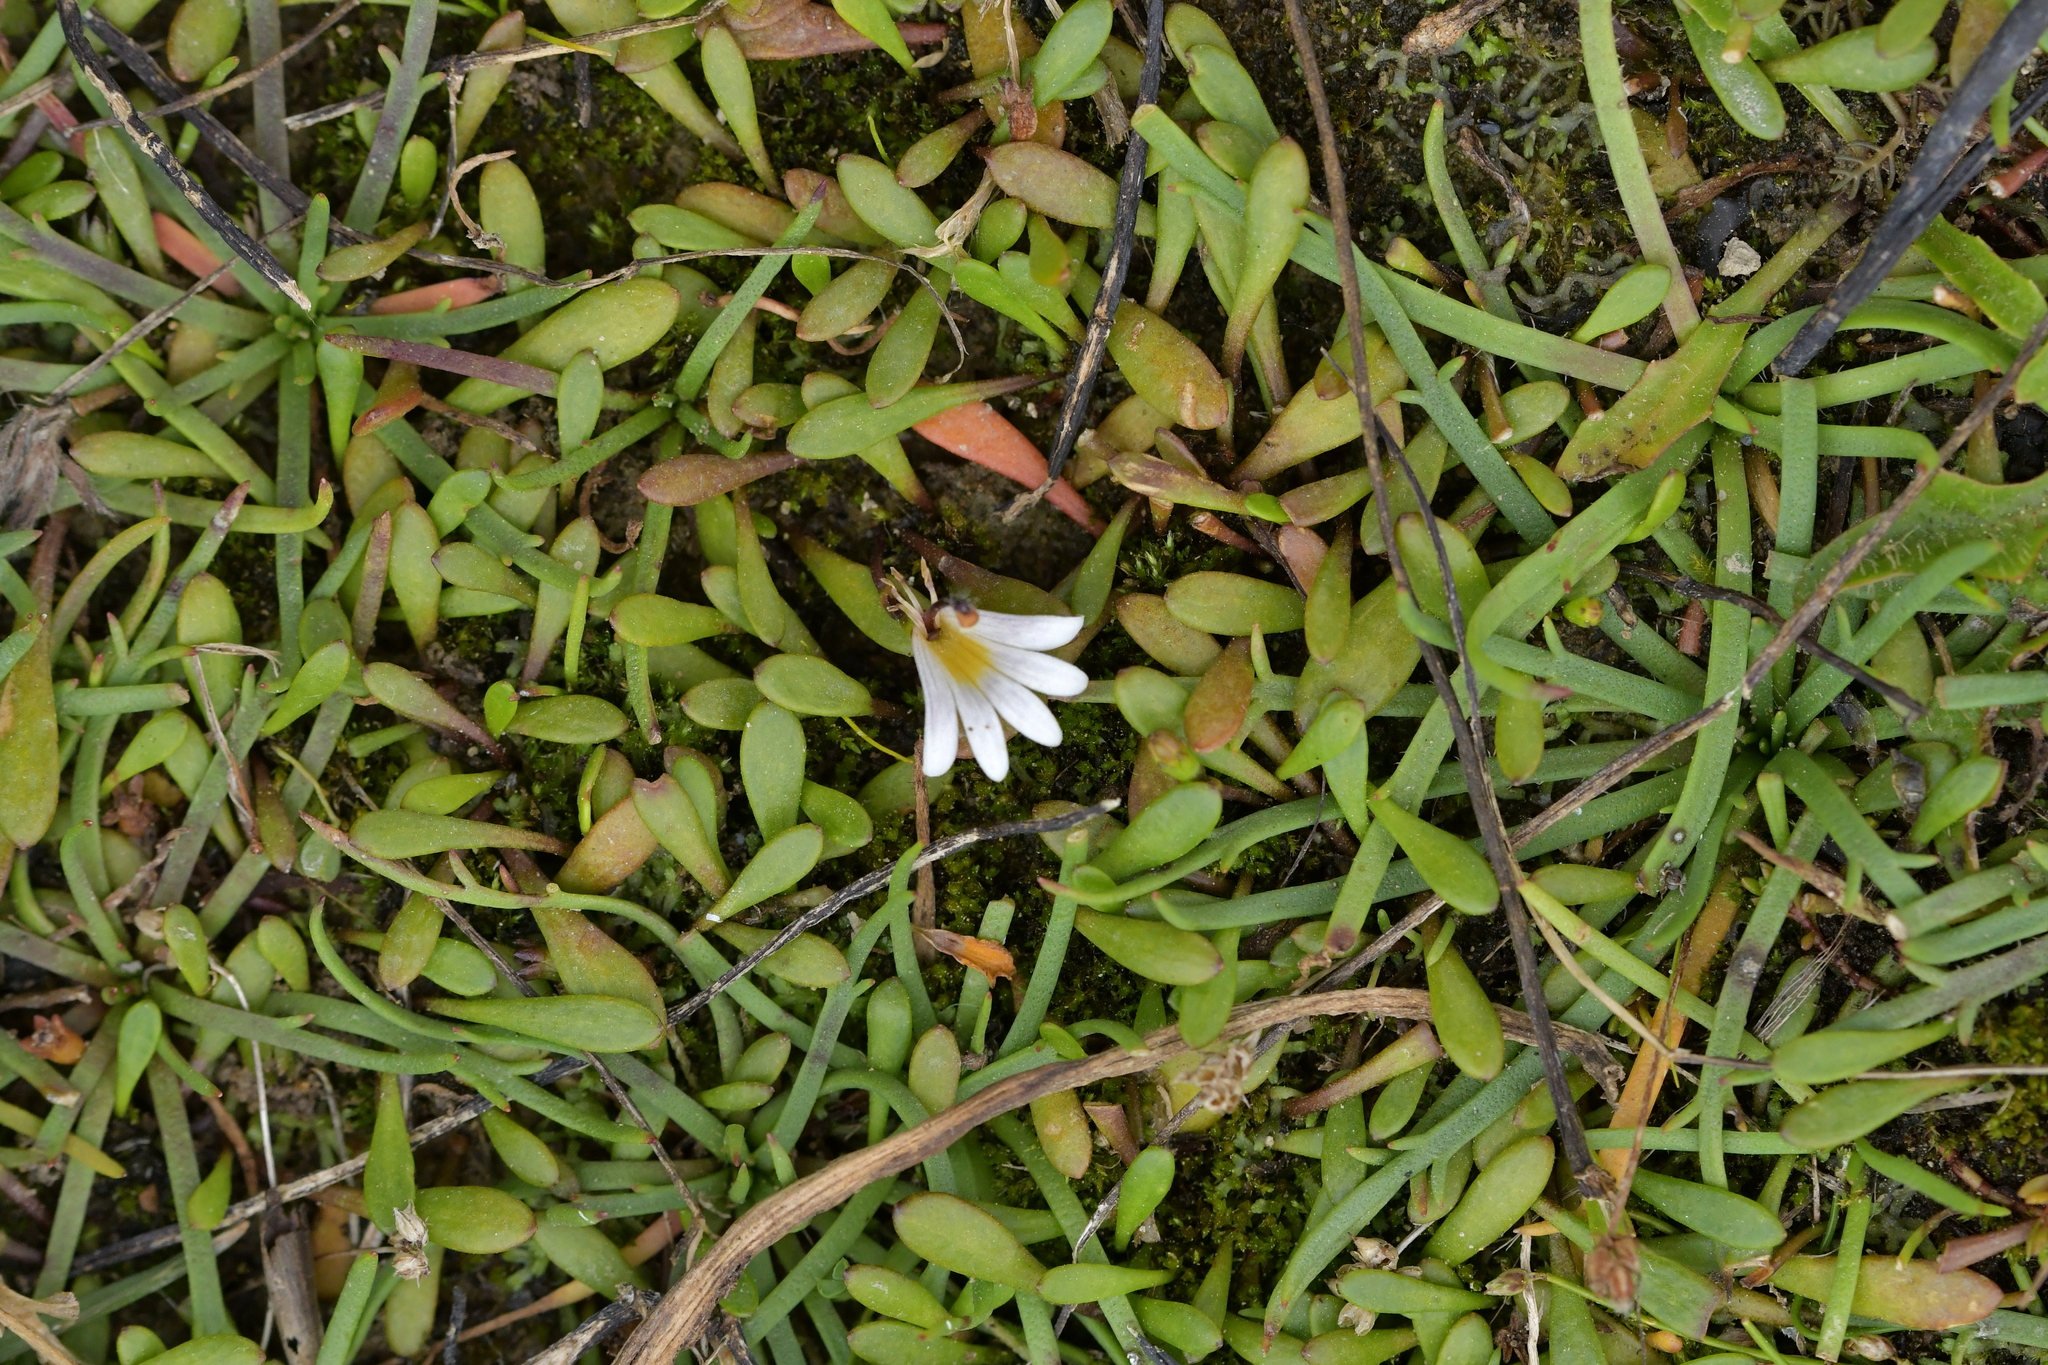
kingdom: Plantae
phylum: Tracheophyta
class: Magnoliopsida
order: Asterales
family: Goodeniaceae
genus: Goodenia
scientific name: Goodenia radicans
